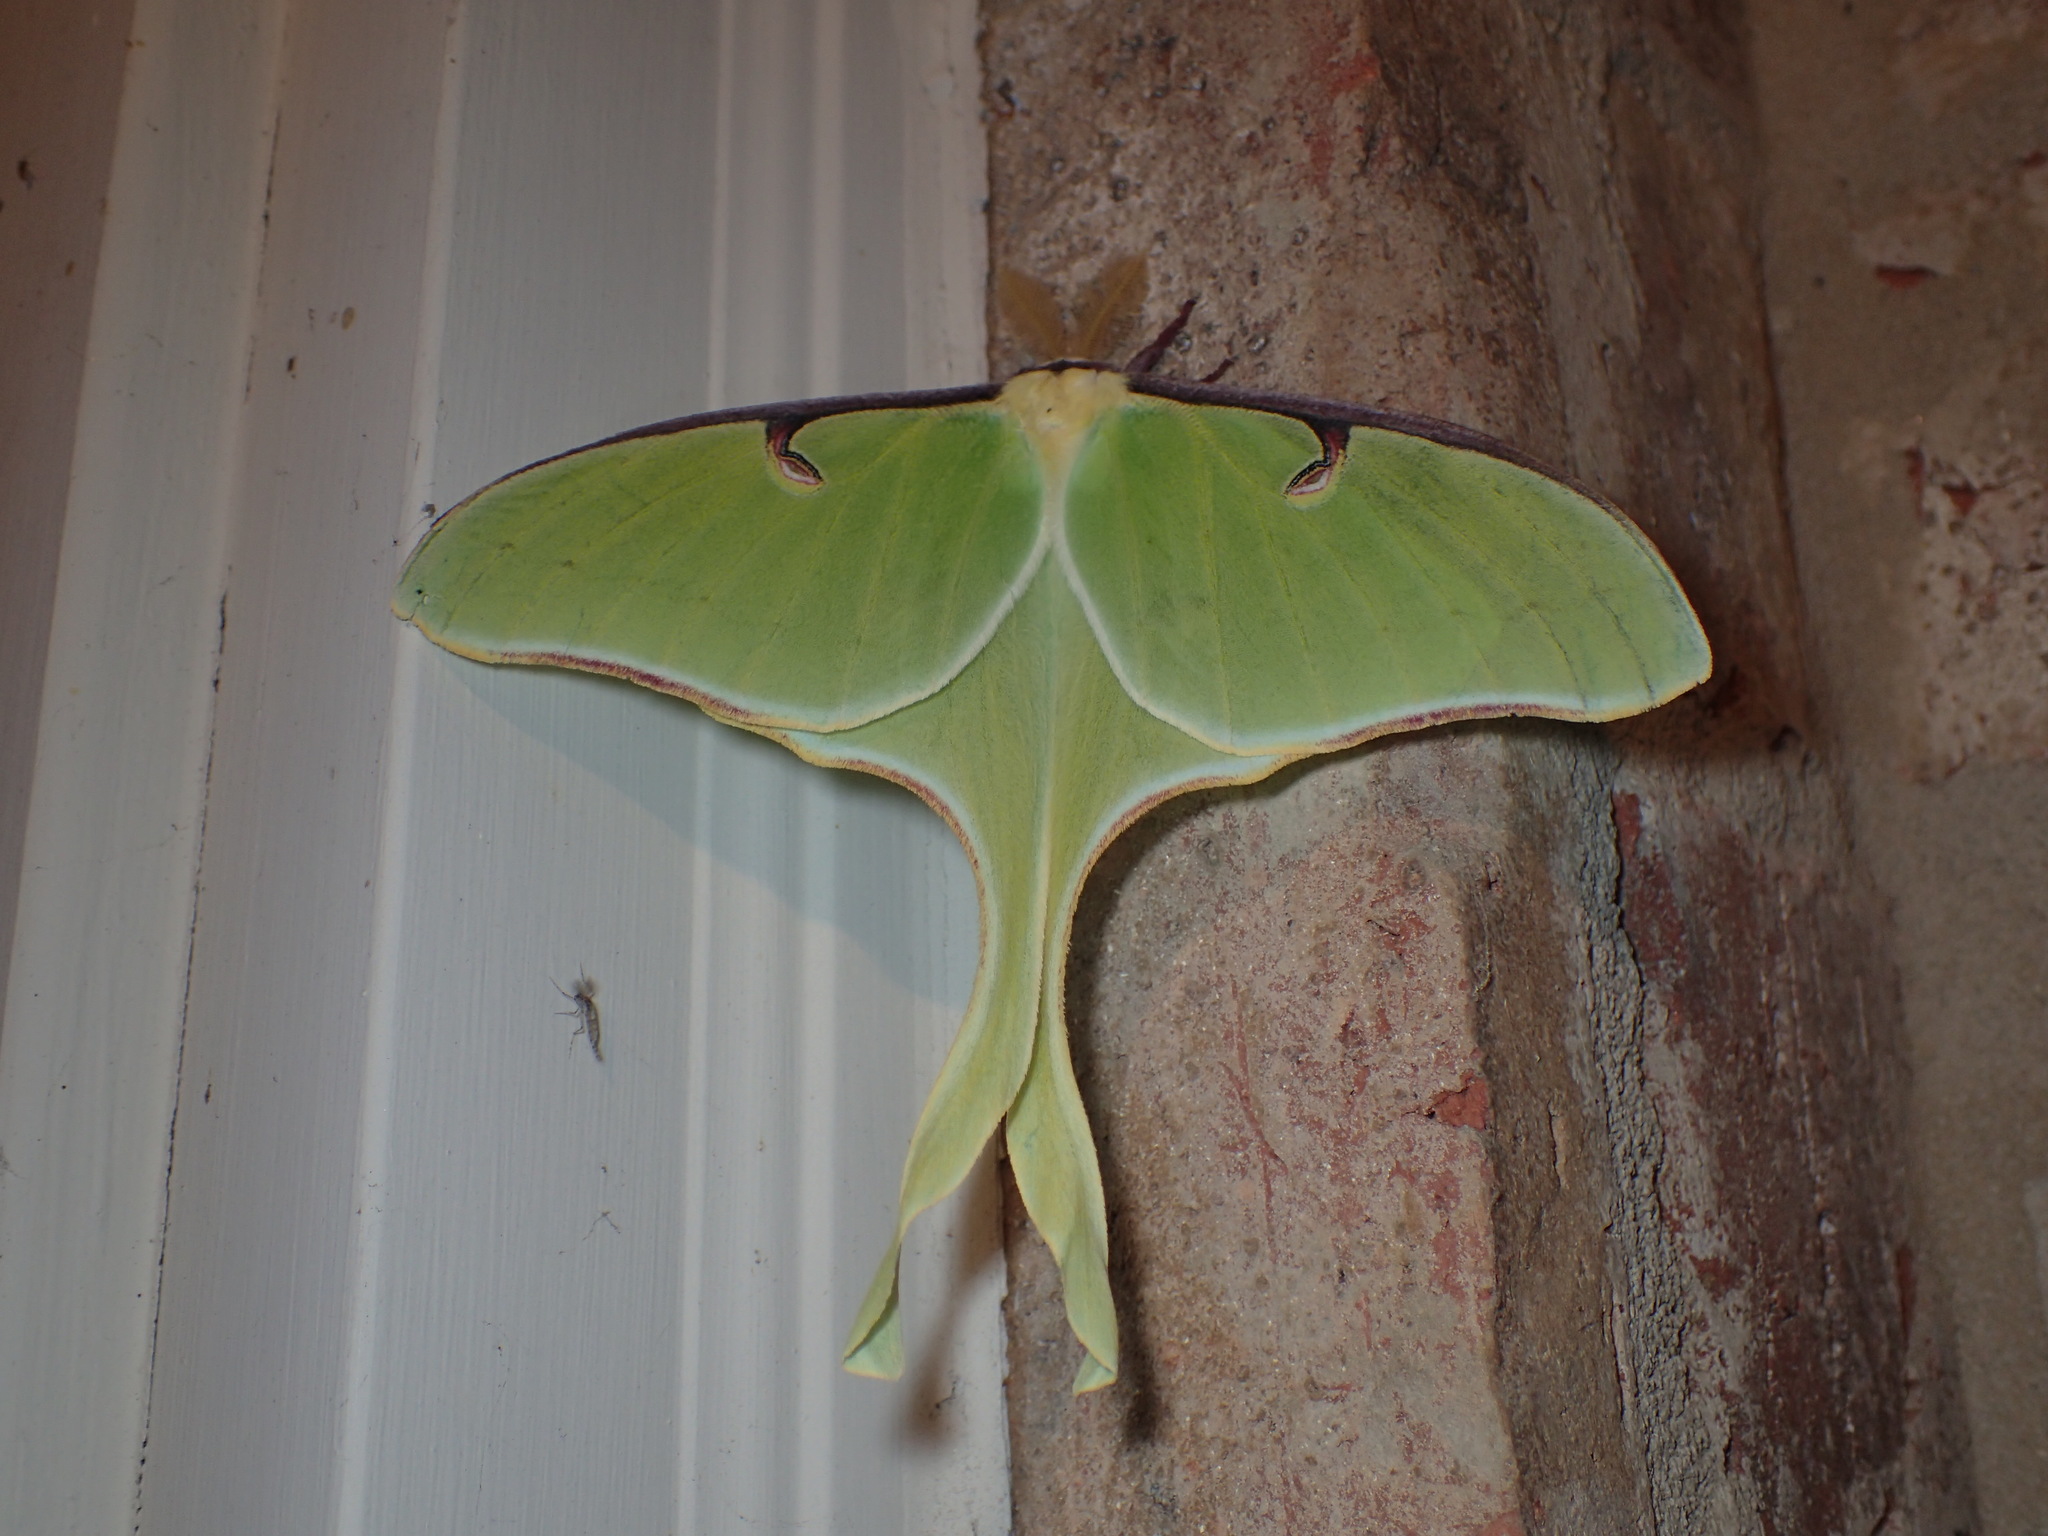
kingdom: Animalia
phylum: Arthropoda
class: Insecta
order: Lepidoptera
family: Saturniidae
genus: Actias
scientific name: Actias luna
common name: Luna moth
